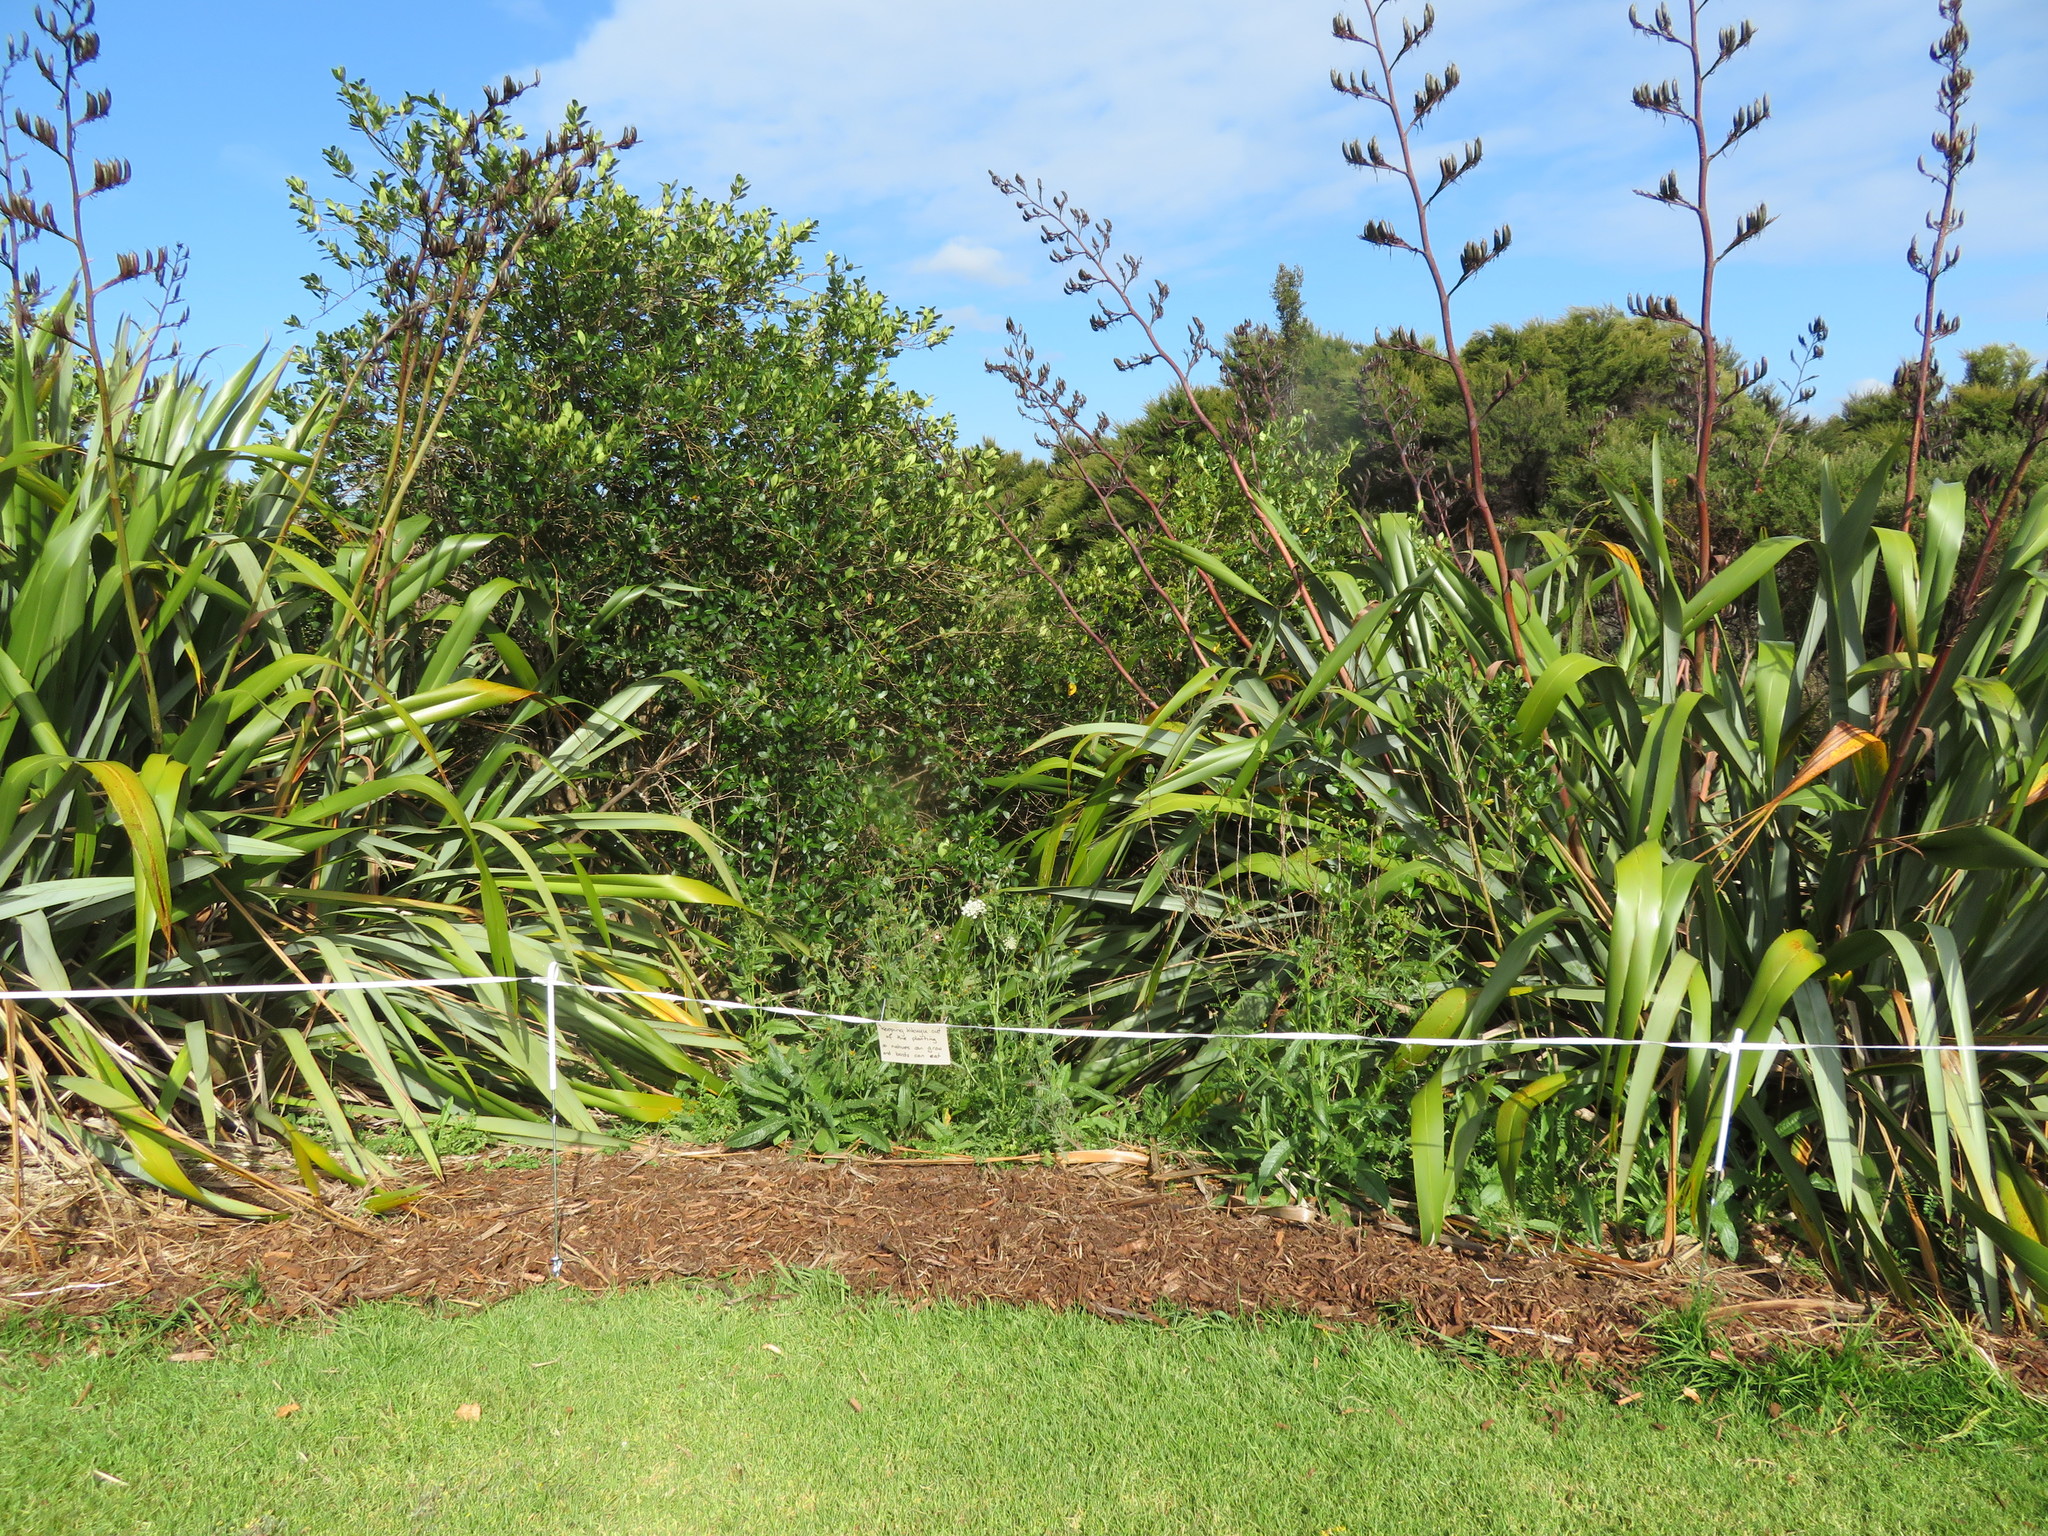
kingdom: Plantae
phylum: Tracheophyta
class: Magnoliopsida
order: Gentianales
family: Rubiaceae
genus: Coprosma
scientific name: Coprosma robusta
